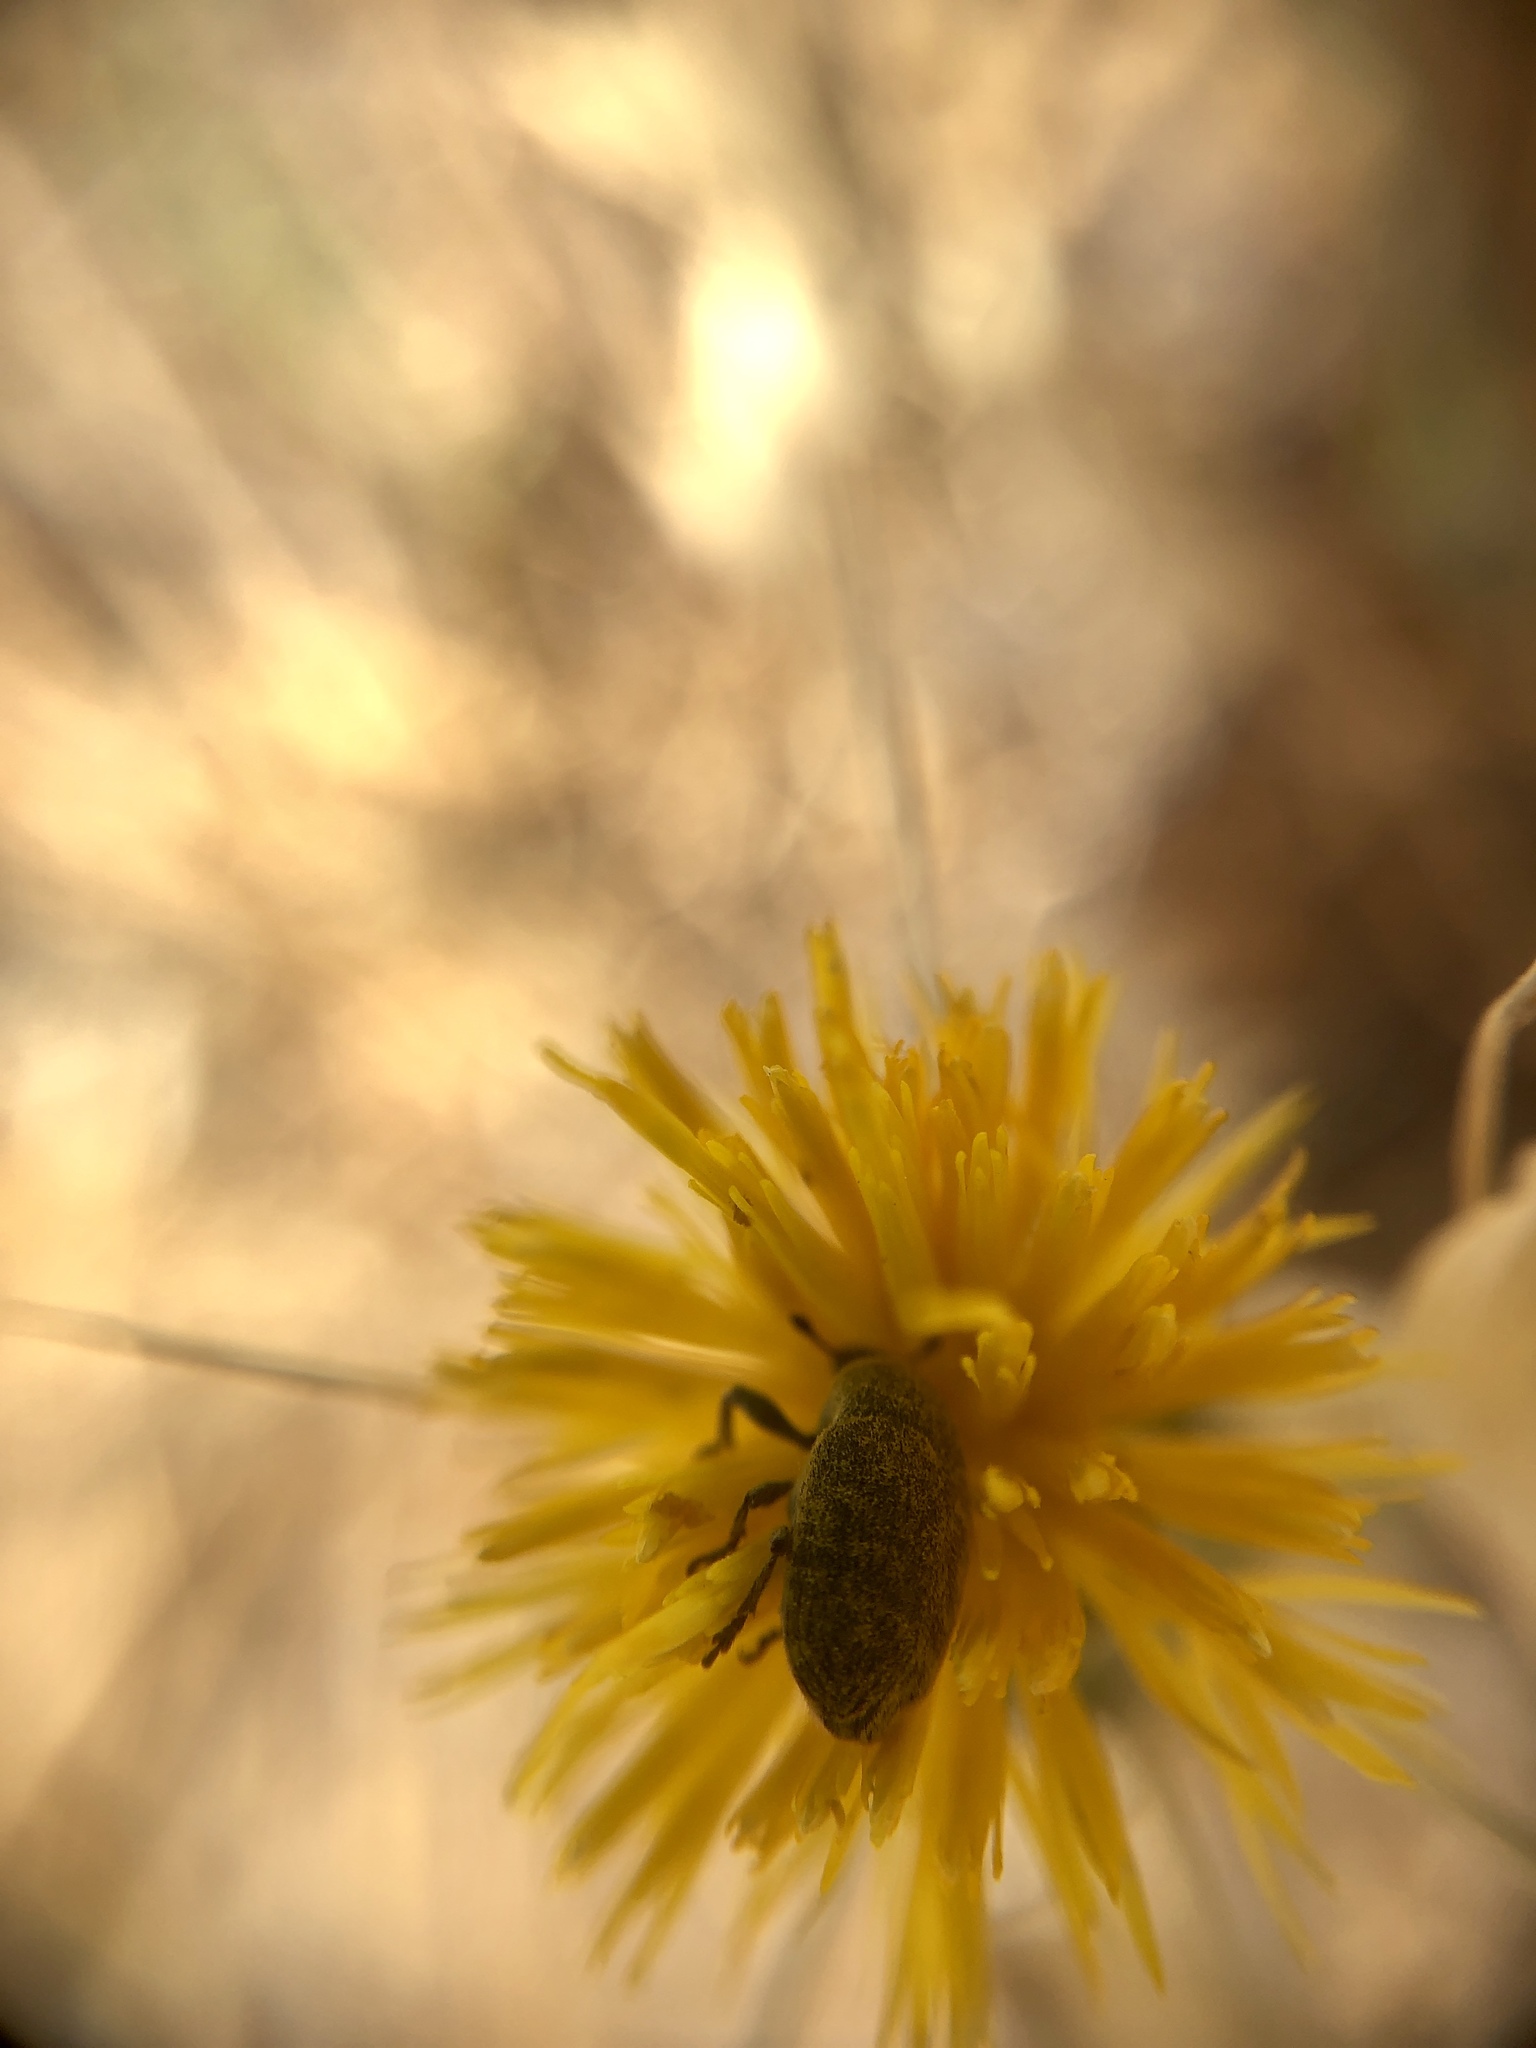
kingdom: Animalia
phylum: Arthropoda
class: Insecta
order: Coleoptera
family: Curculionidae
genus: Larinus
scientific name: Larinus curtus
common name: Weevil
